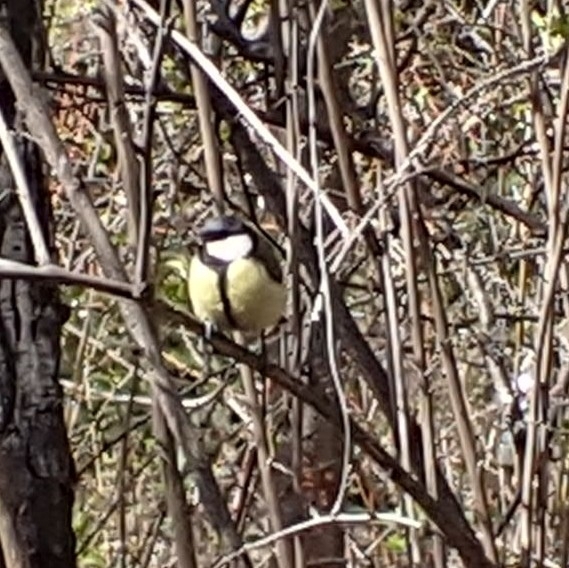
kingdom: Animalia
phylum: Chordata
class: Aves
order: Passeriformes
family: Paridae
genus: Parus
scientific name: Parus major
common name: Great tit
